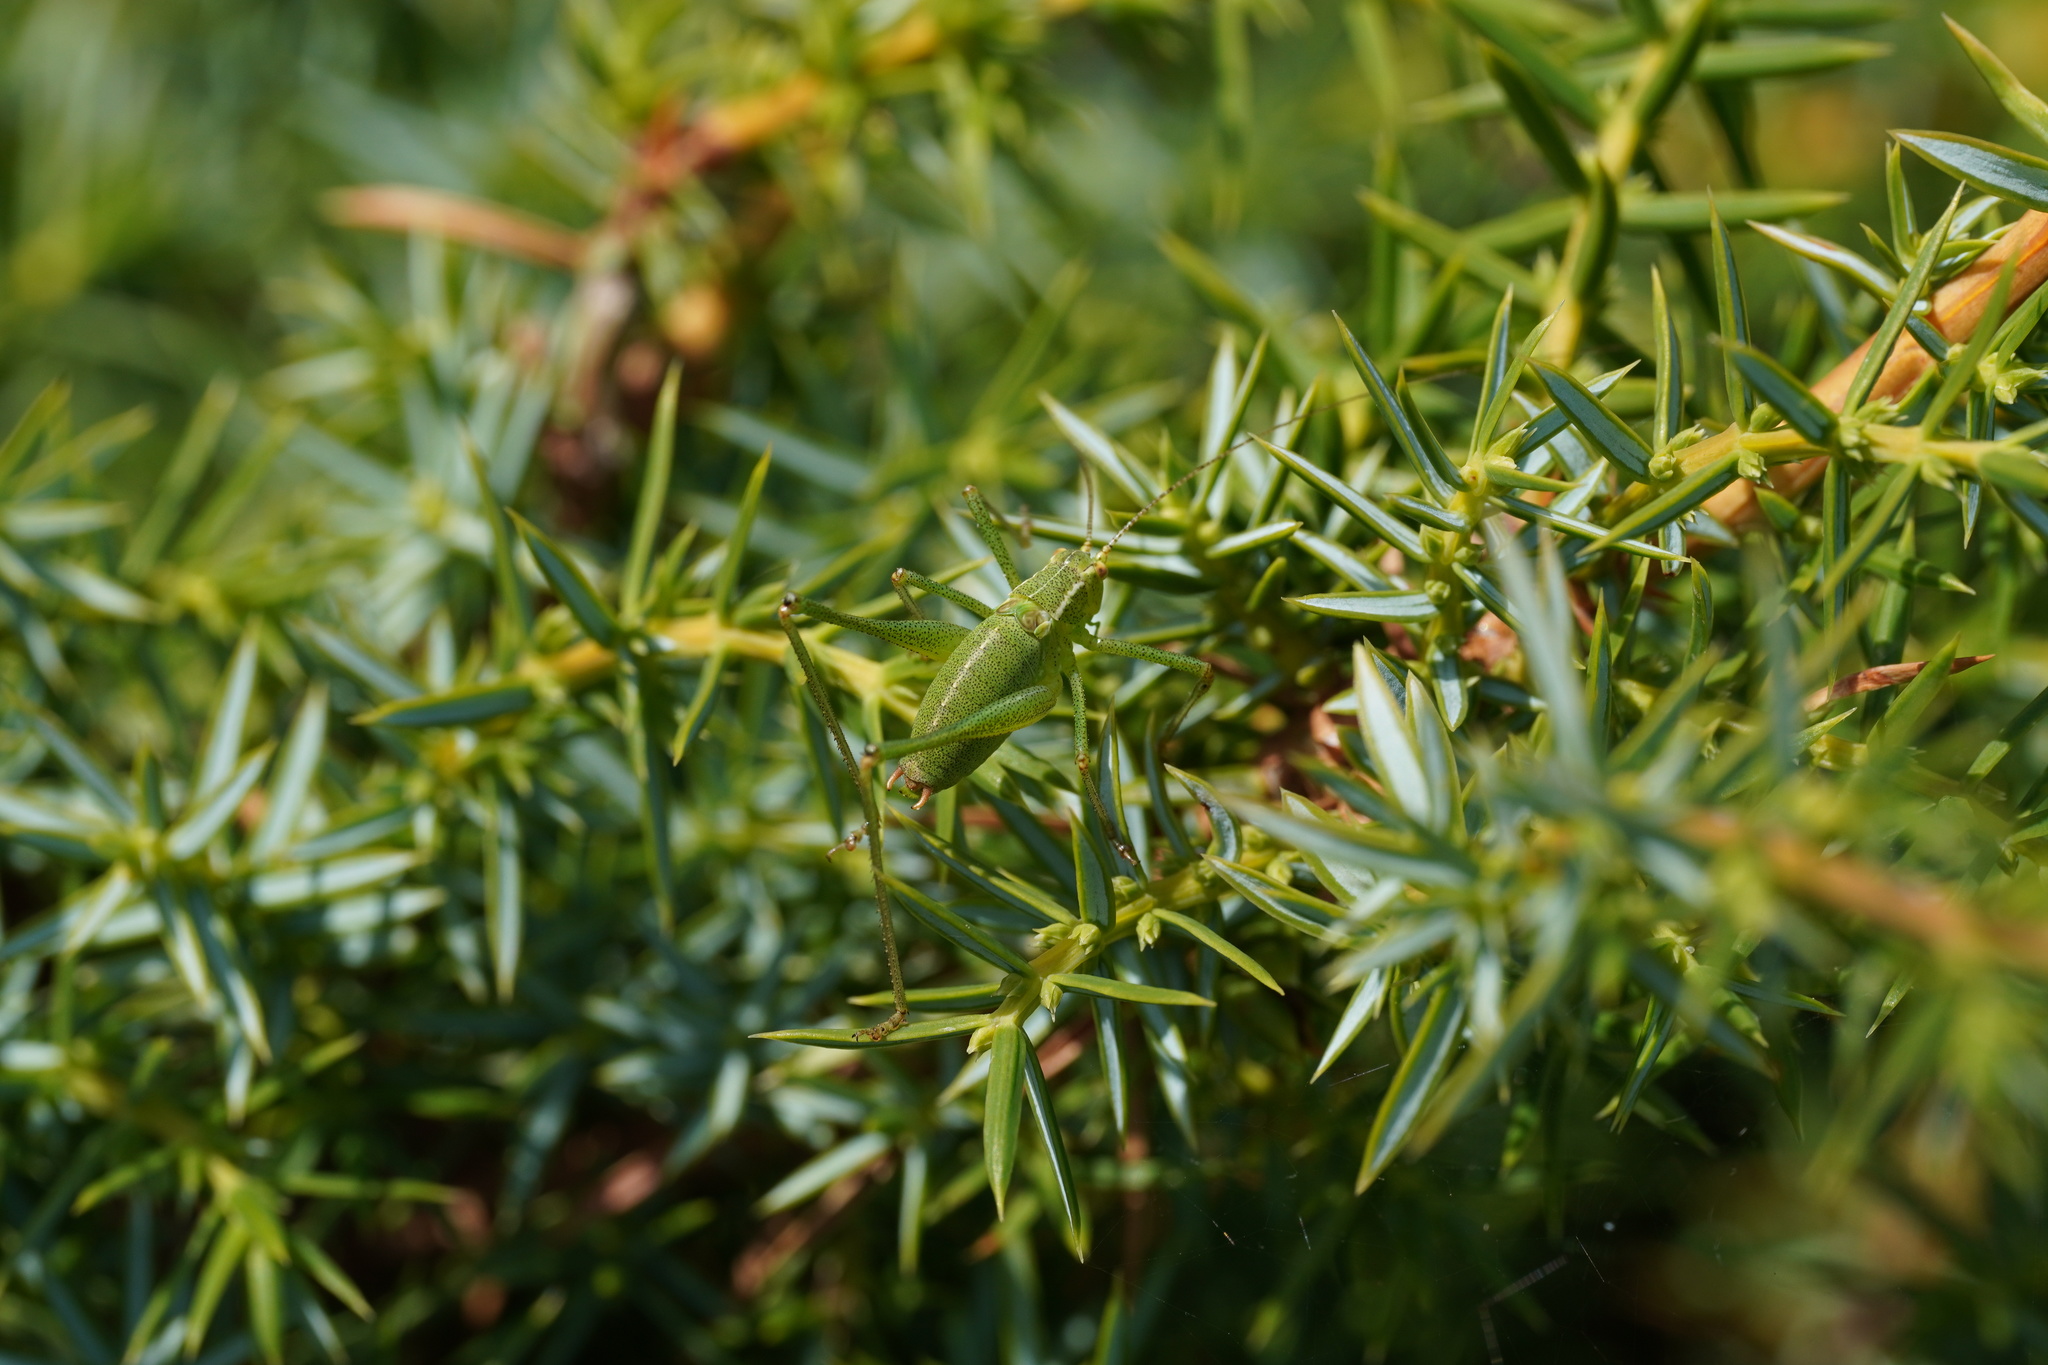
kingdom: Animalia
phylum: Arthropoda
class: Insecta
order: Orthoptera
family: Tettigoniidae
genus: Leptophyes
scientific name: Leptophyes punctatissima
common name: Speckled bush-cricket
